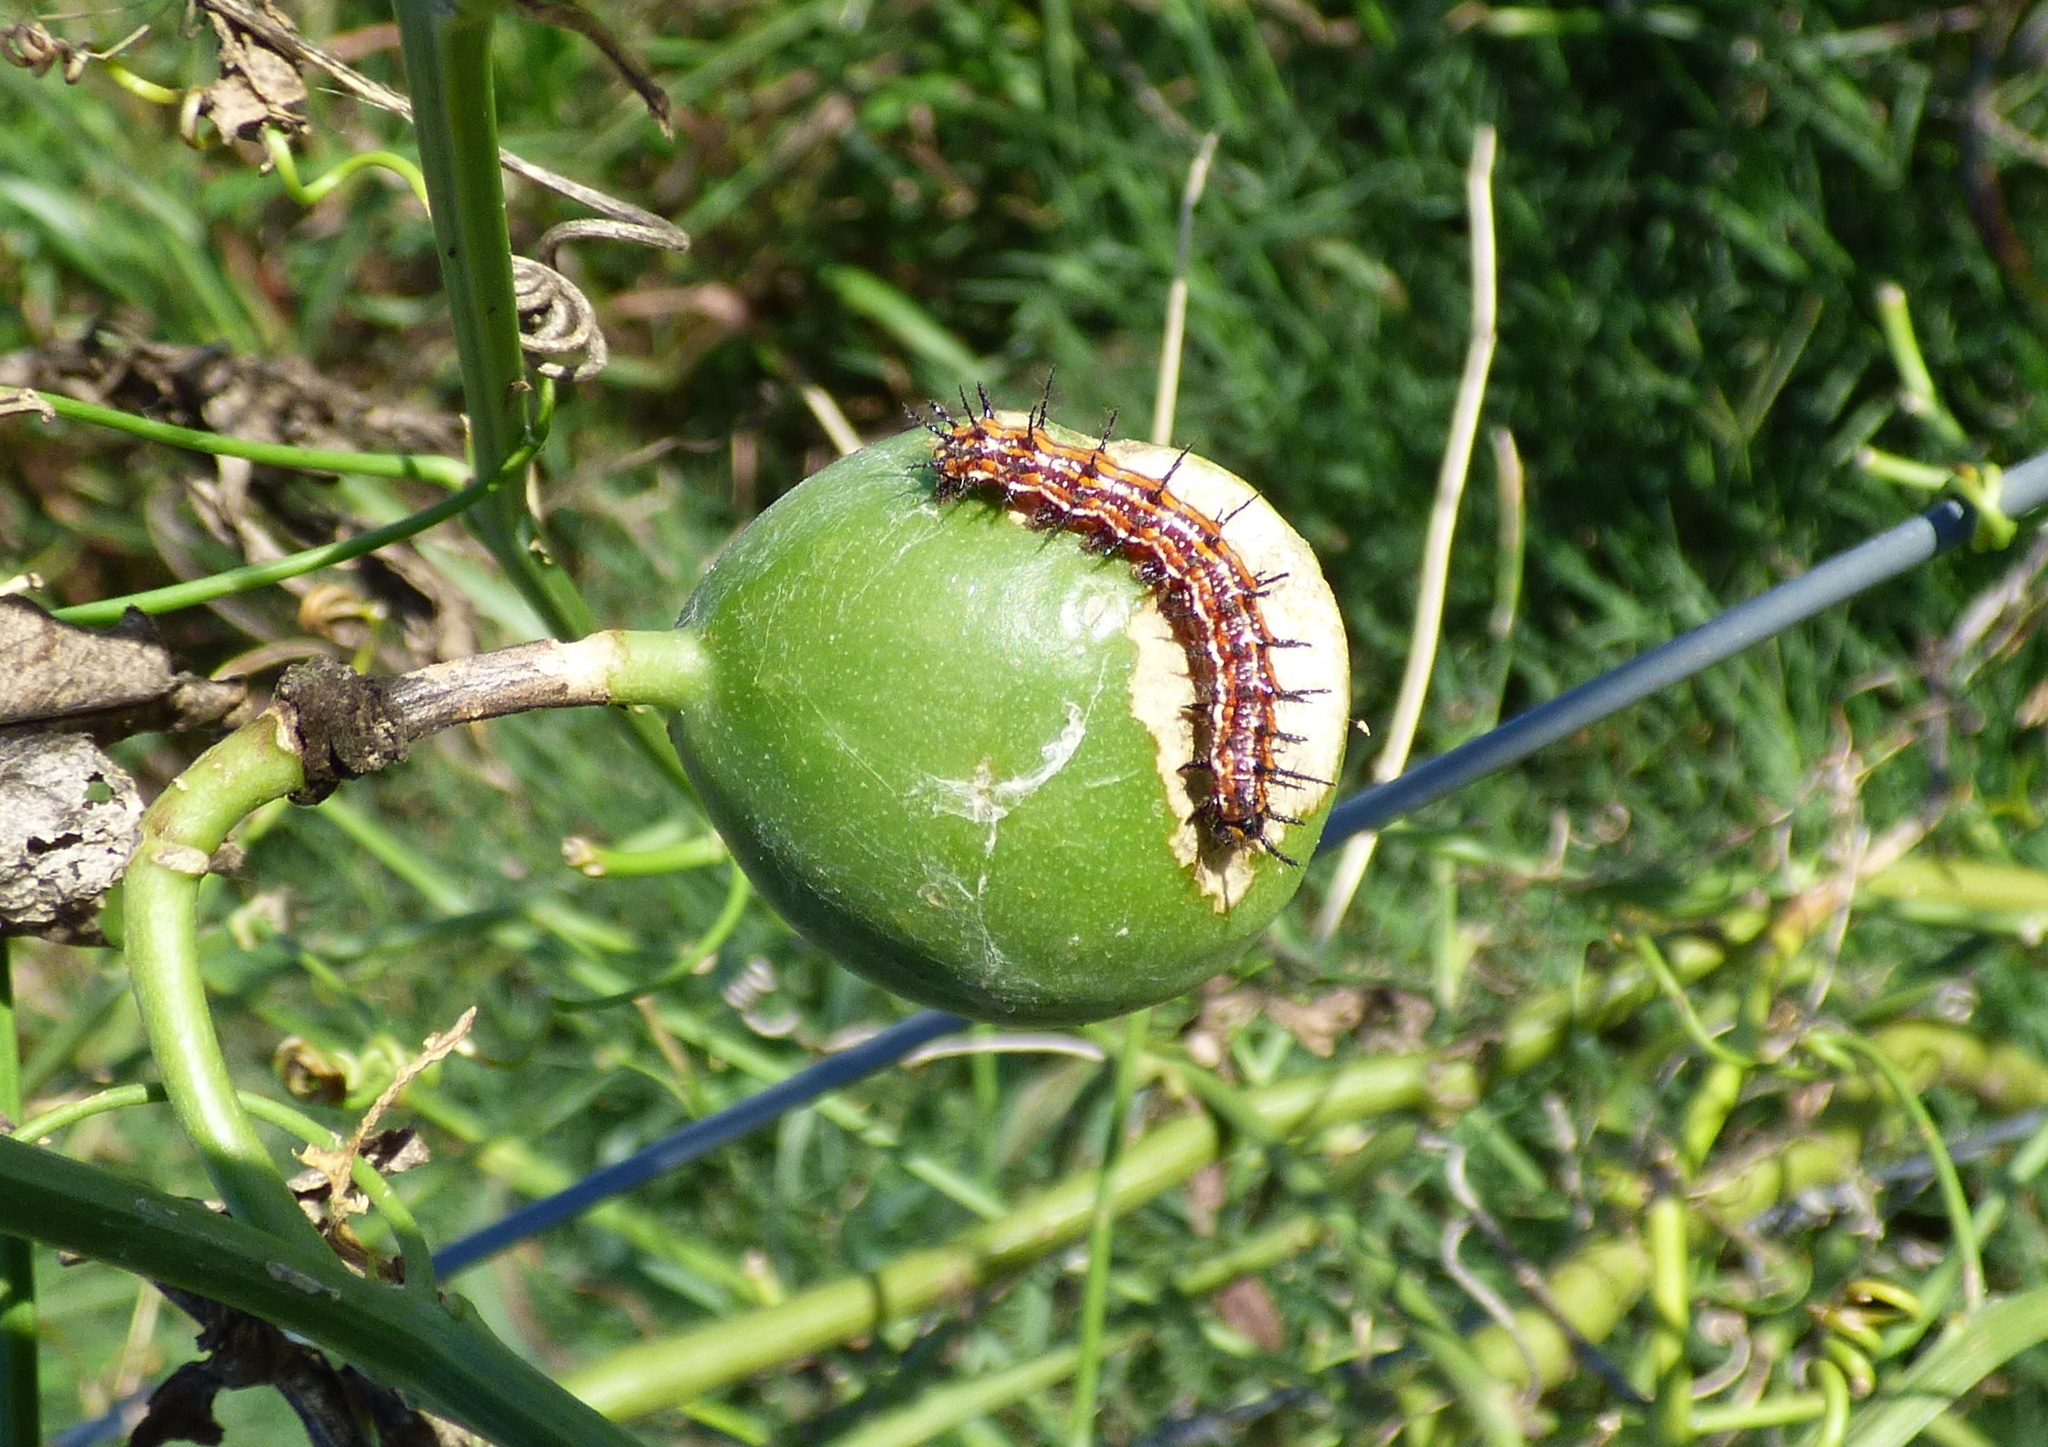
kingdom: Animalia
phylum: Arthropoda
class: Insecta
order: Lepidoptera
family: Nymphalidae
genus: Dione
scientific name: Dione vanillae
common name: Gulf fritillary
